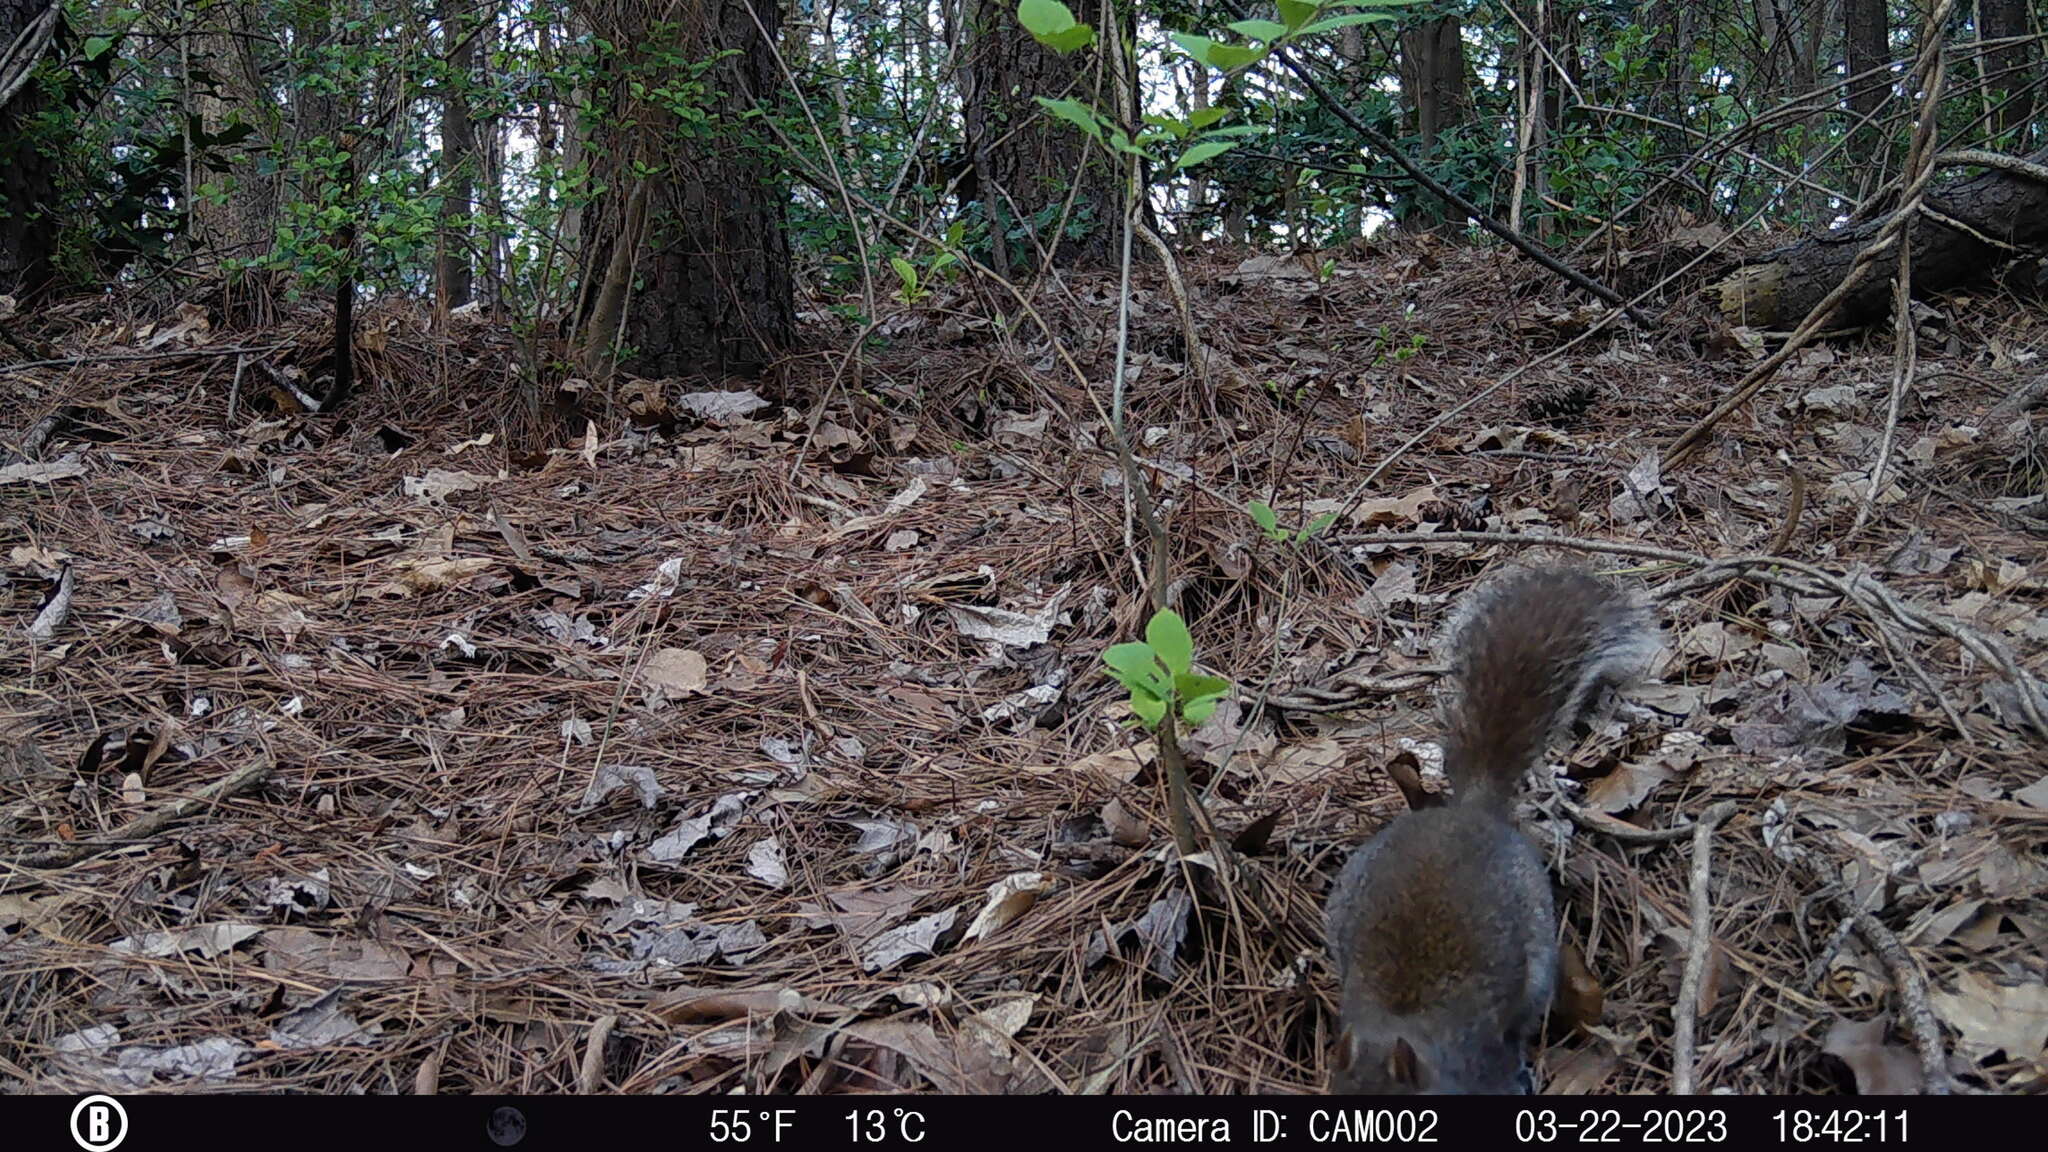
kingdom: Animalia
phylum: Chordata
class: Mammalia
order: Rodentia
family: Sciuridae
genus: Sciurus
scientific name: Sciurus carolinensis
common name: Eastern gray squirrel
